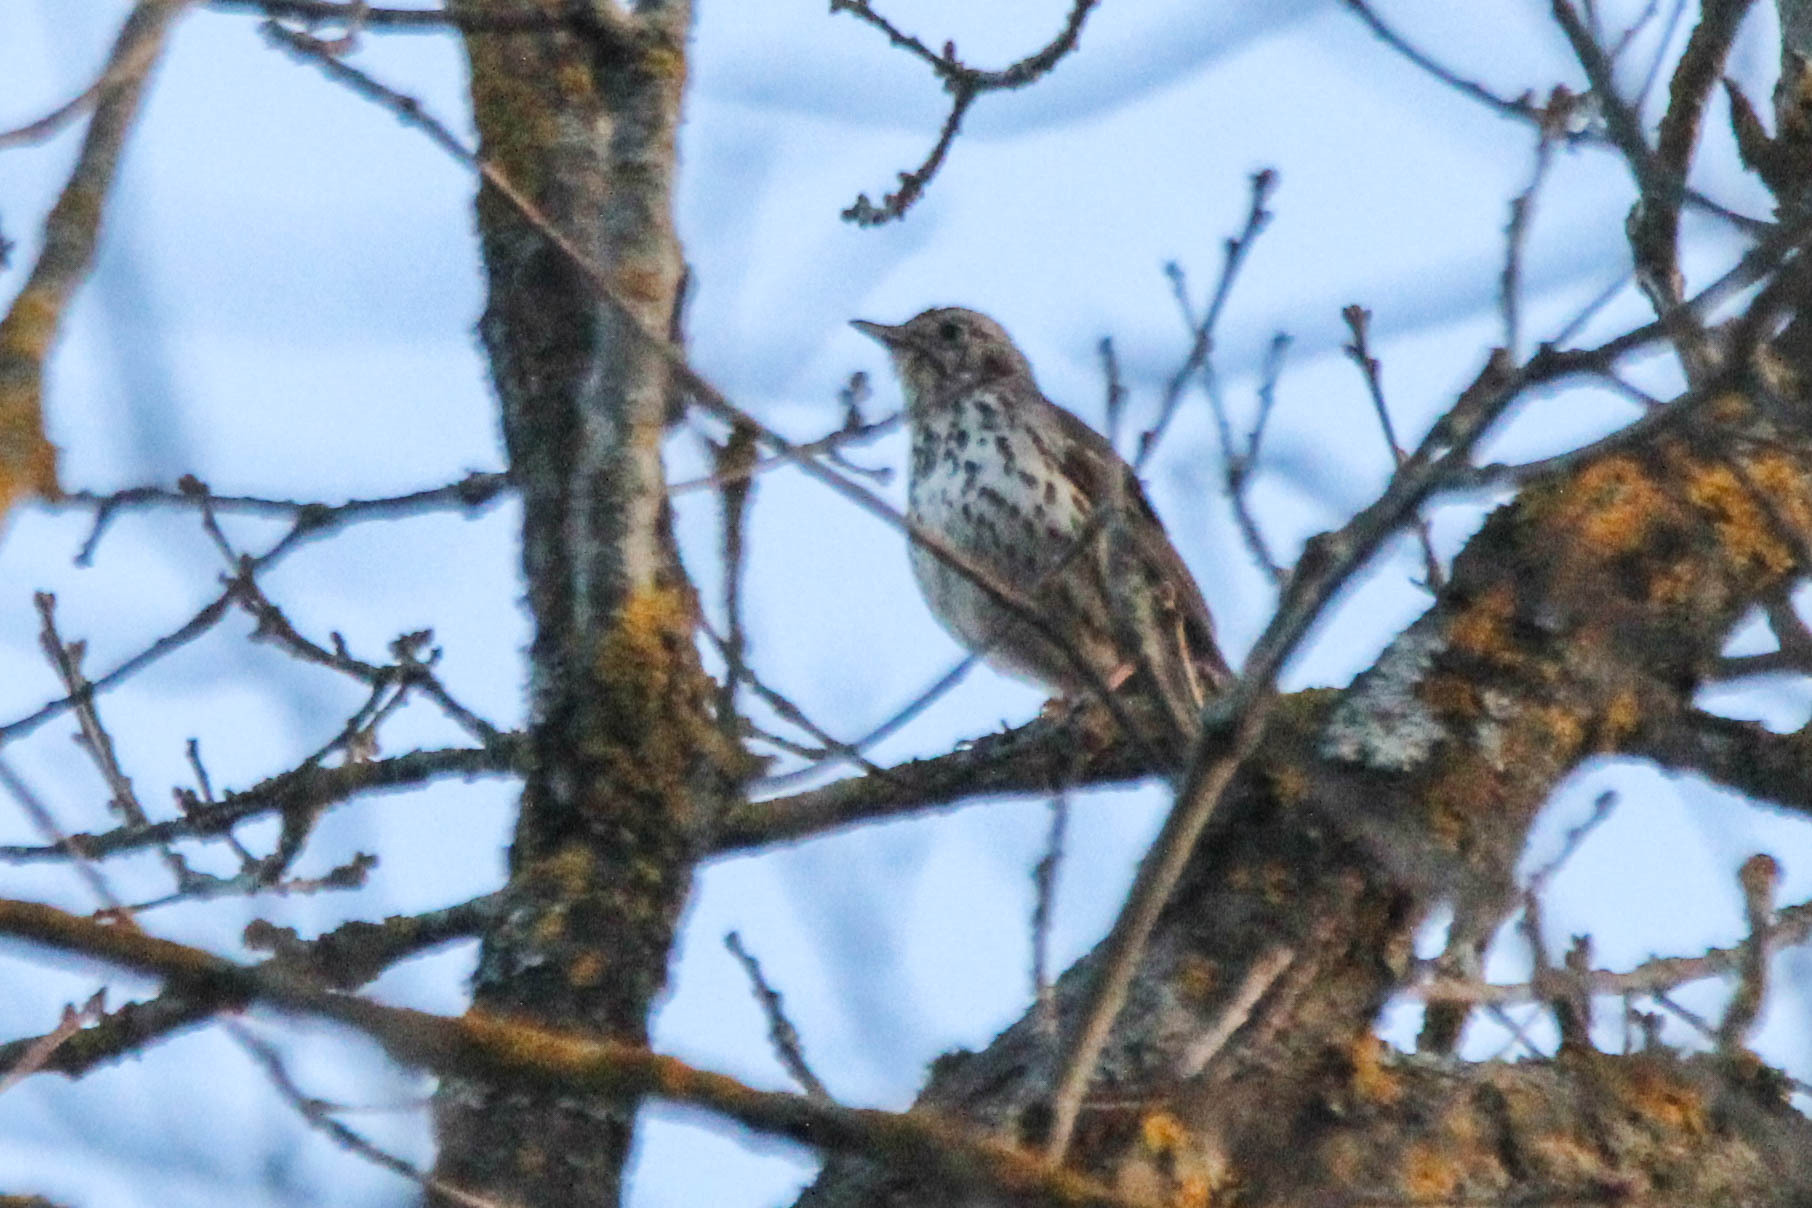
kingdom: Animalia
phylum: Chordata
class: Aves
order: Passeriformes
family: Turdidae
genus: Turdus
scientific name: Turdus philomelos
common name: Song thrush
